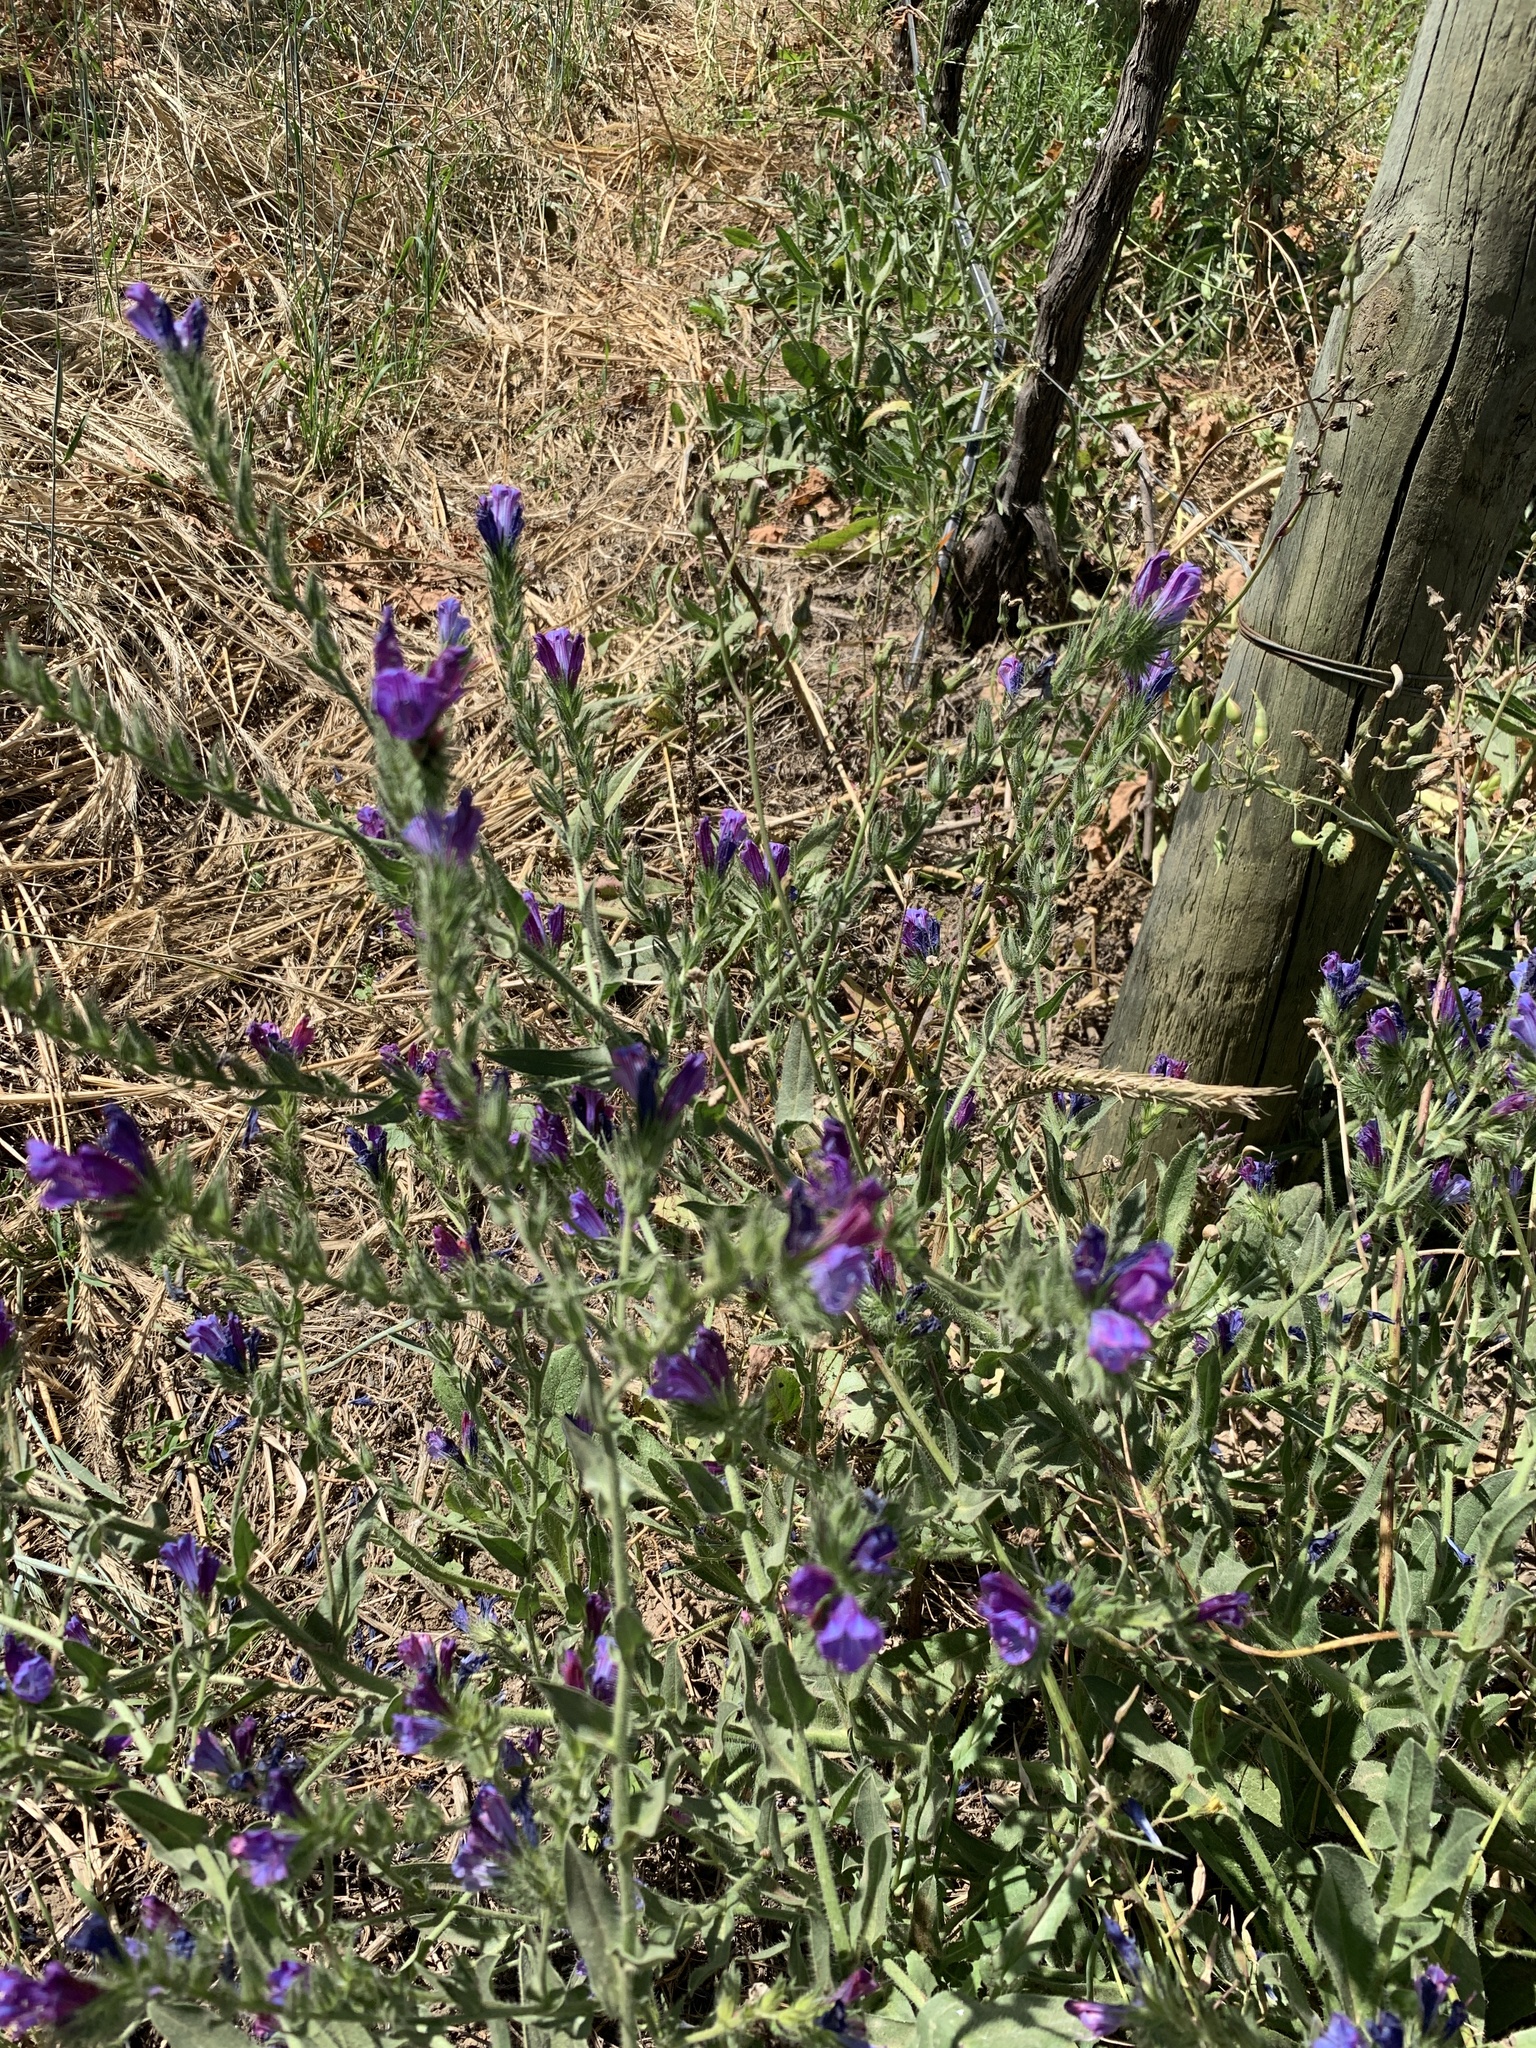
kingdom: Plantae
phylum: Tracheophyta
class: Magnoliopsida
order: Boraginales
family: Boraginaceae
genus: Echium
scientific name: Echium plantagineum
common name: Purple viper's-bugloss
